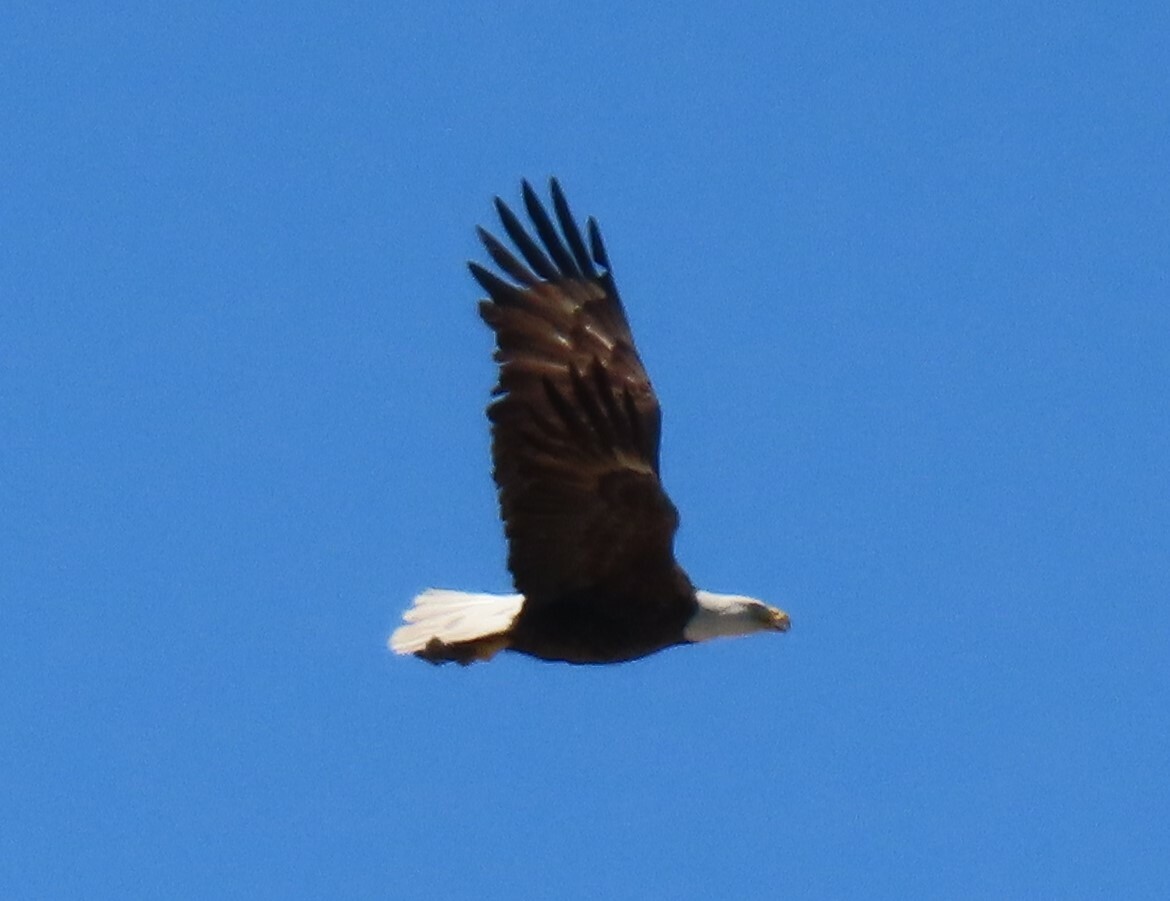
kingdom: Animalia
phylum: Chordata
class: Aves
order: Accipitriformes
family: Accipitridae
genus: Haliaeetus
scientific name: Haliaeetus leucocephalus
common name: Bald eagle
